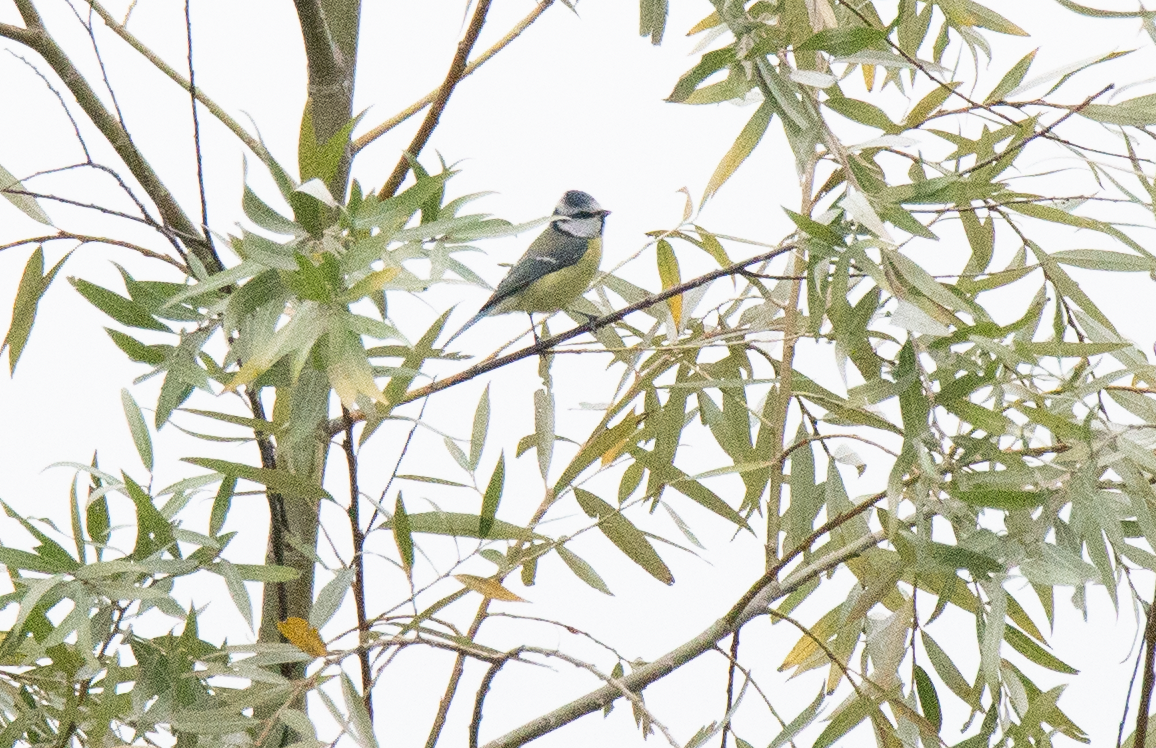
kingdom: Animalia
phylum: Chordata
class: Aves
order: Passeriformes
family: Paridae
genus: Cyanistes
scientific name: Cyanistes caeruleus
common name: Eurasian blue tit
